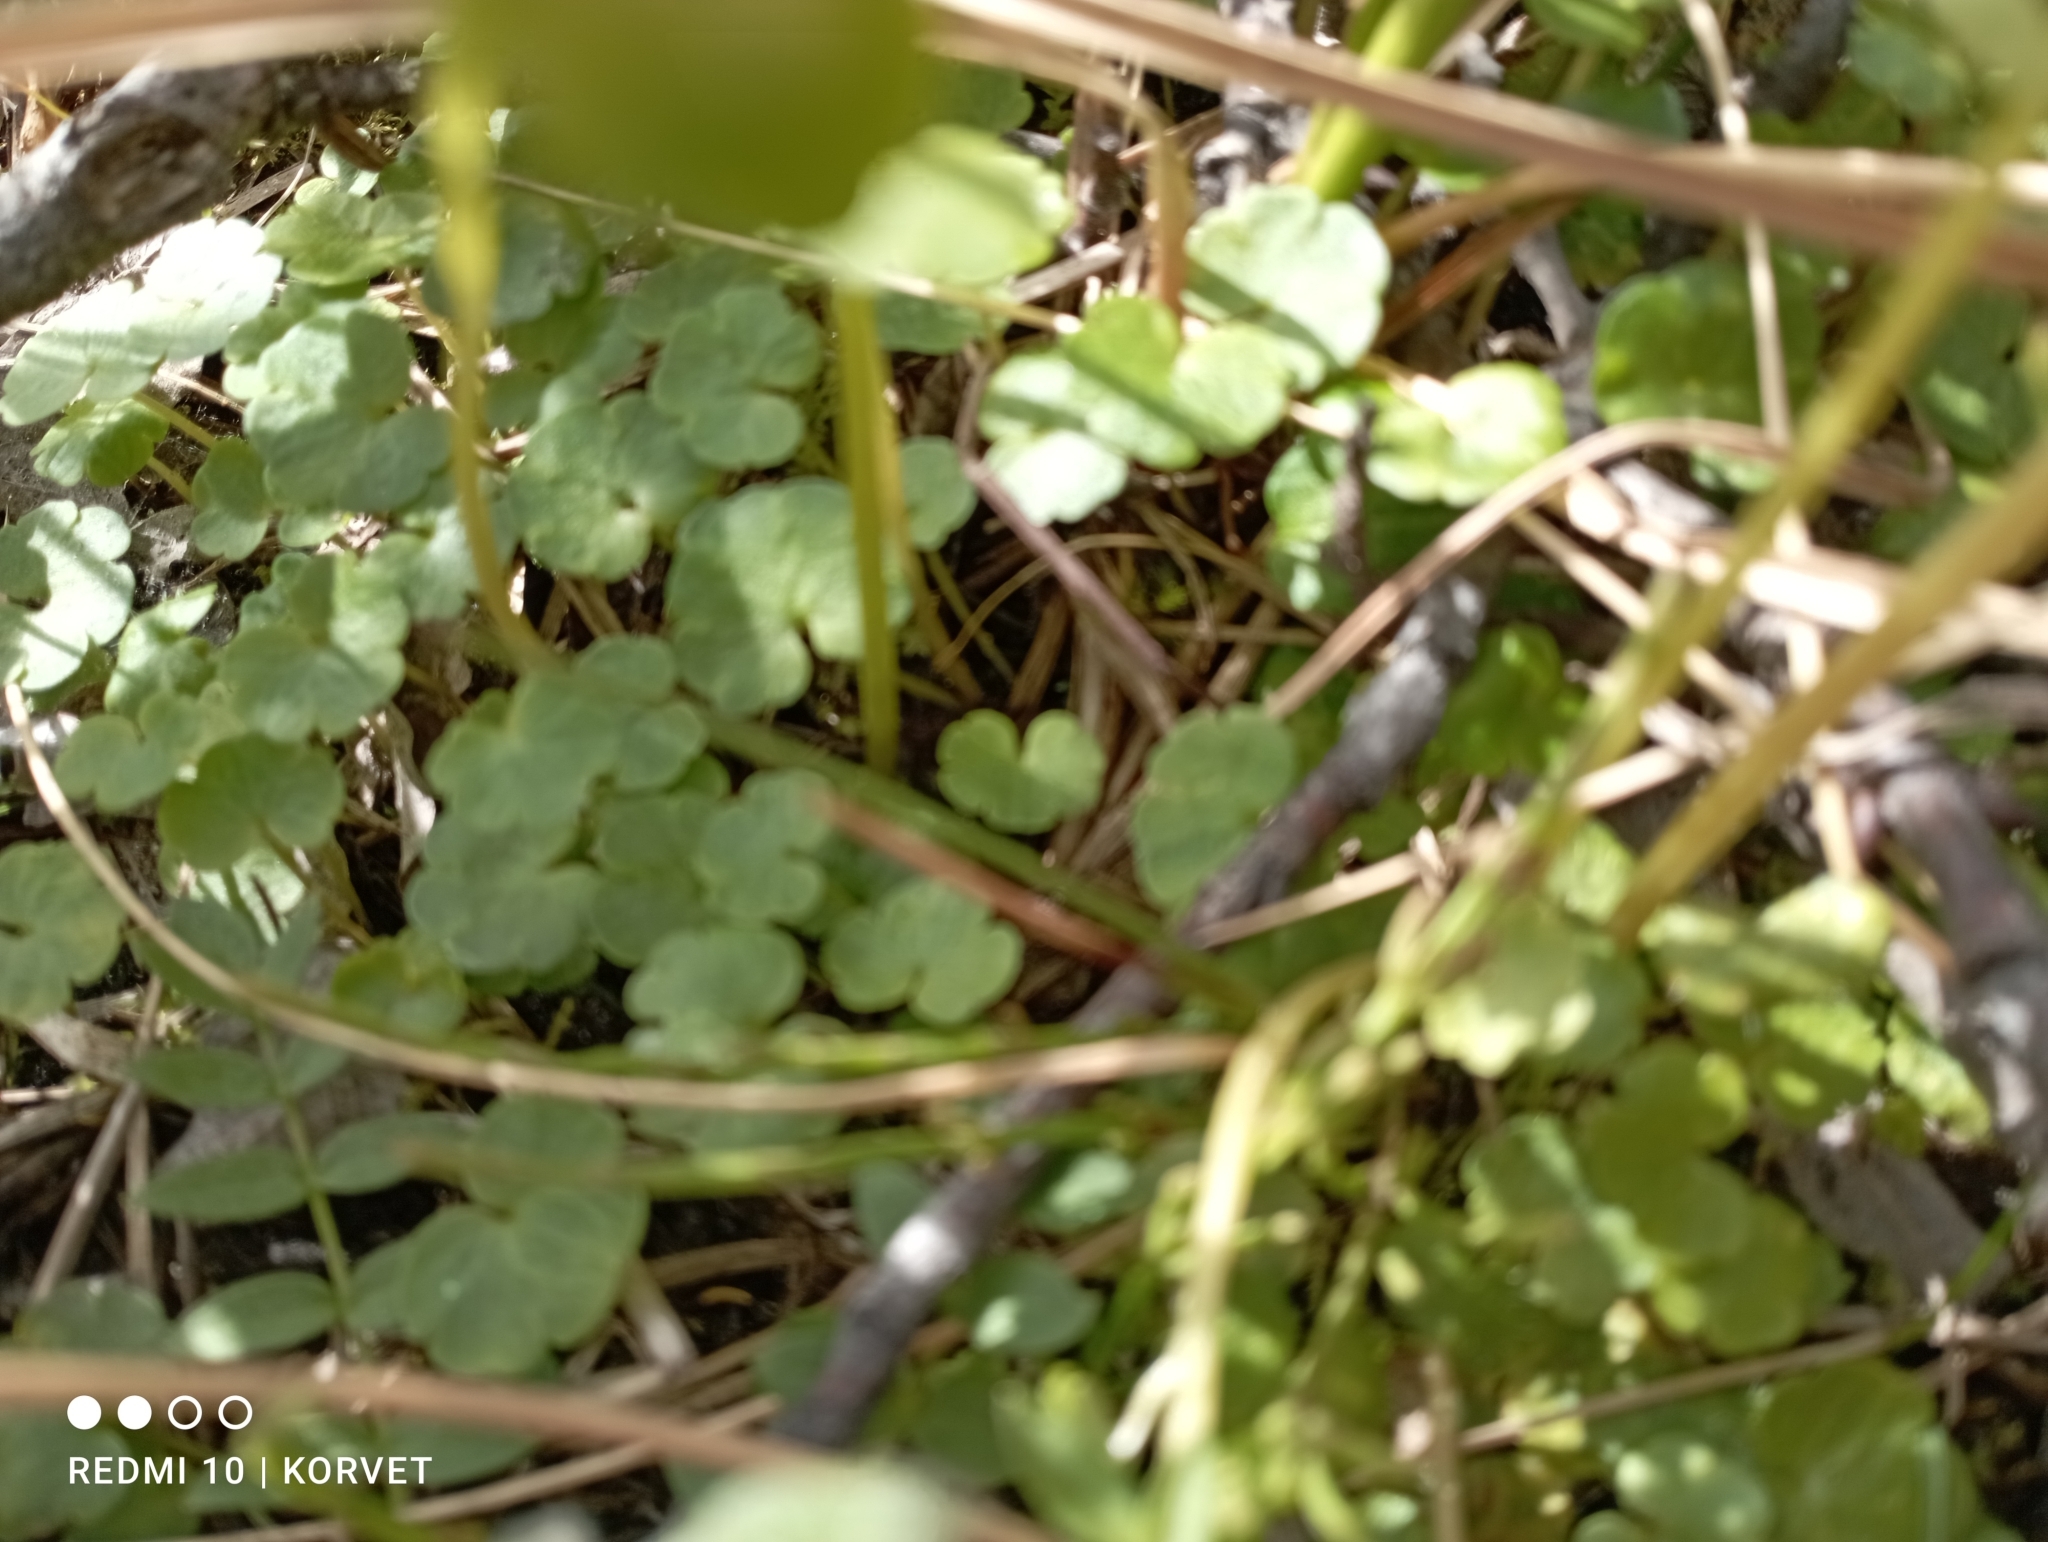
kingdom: Plantae
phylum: Tracheophyta
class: Magnoliopsida
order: Saxifragales
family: Saxifragaceae
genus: Chrysosplenium
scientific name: Chrysosplenium tetrandrum
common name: Green saxifrage
